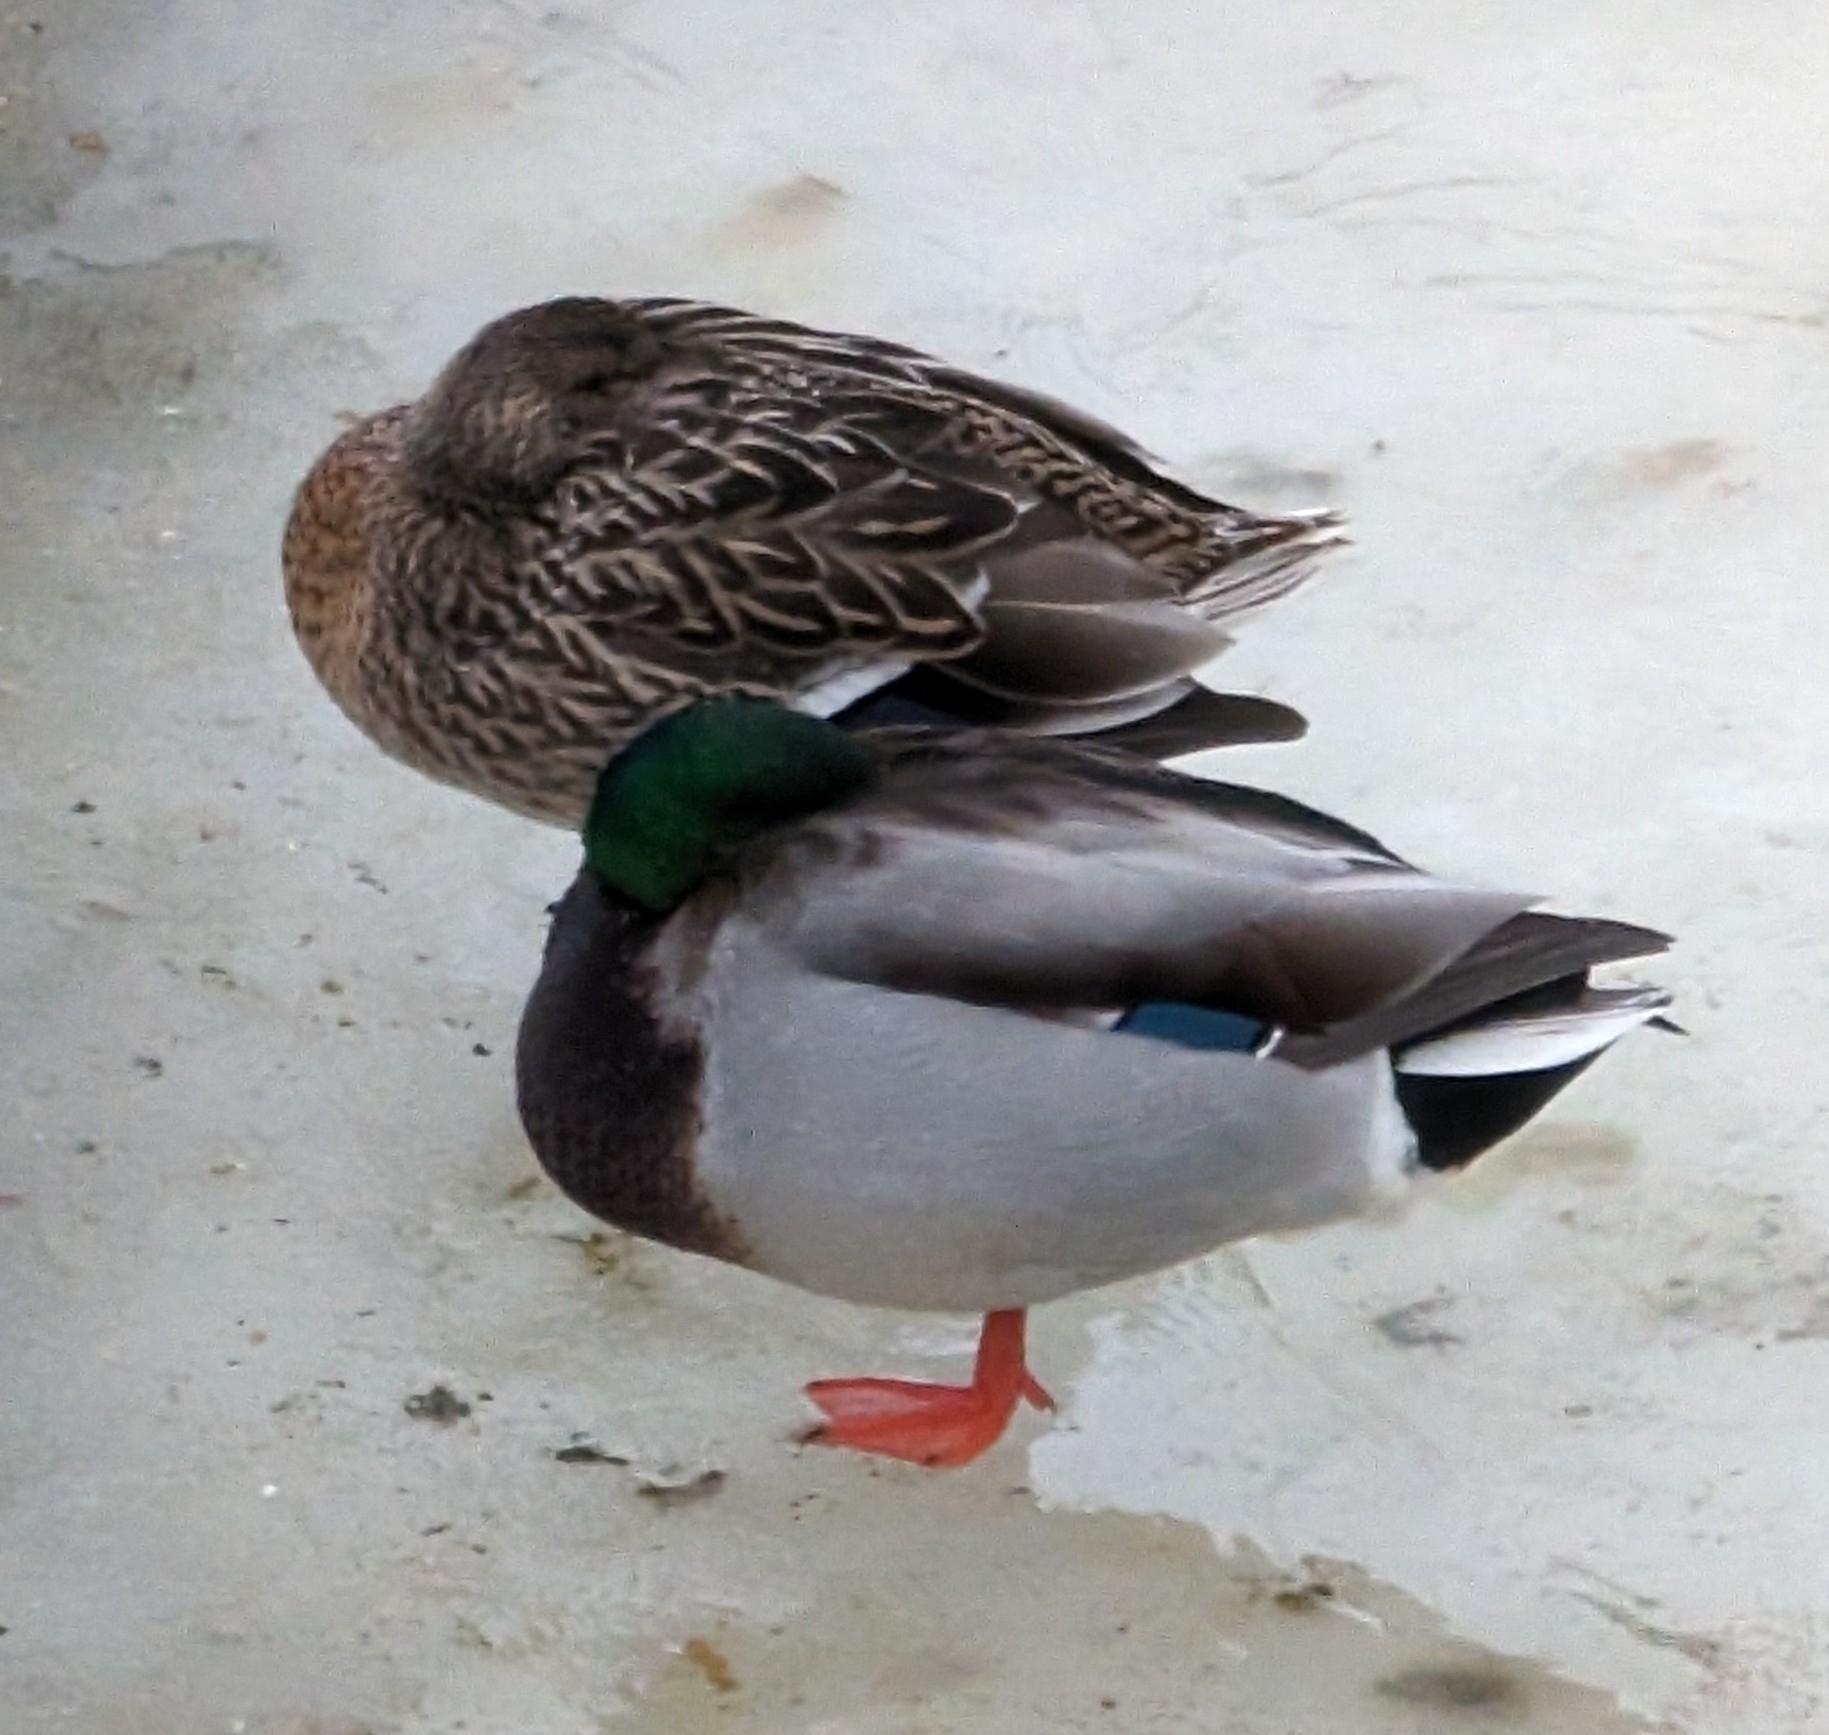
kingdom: Animalia
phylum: Chordata
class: Aves
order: Anseriformes
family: Anatidae
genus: Anas
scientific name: Anas platyrhynchos
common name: Mallard
